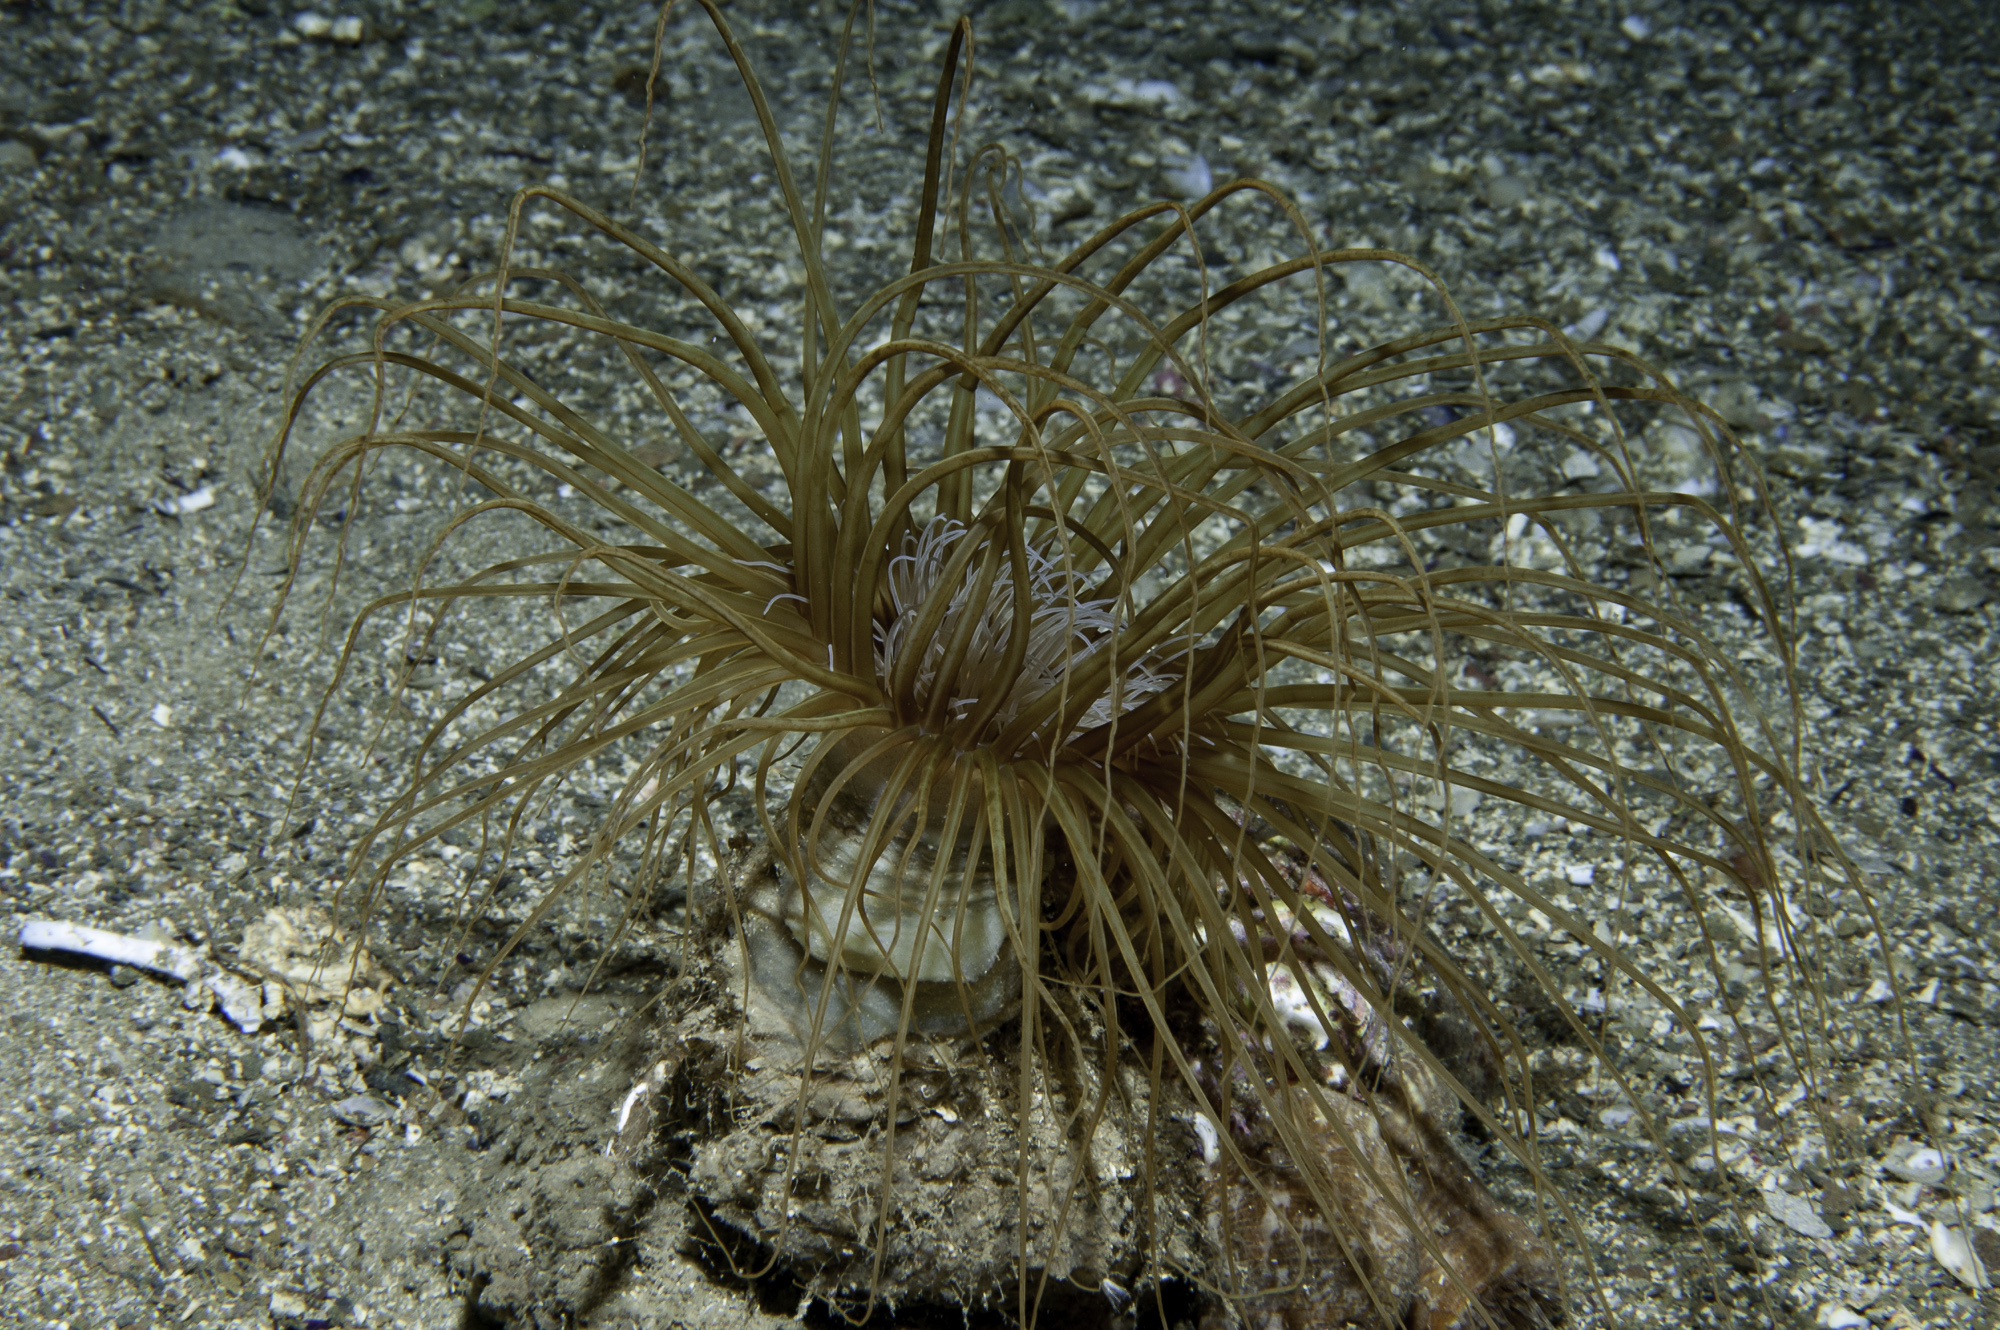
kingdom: Animalia
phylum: Cnidaria
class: Anthozoa
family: Cerianthidae
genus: Cerianthus
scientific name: Cerianthus membranaceus
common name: Cylinder anemone
